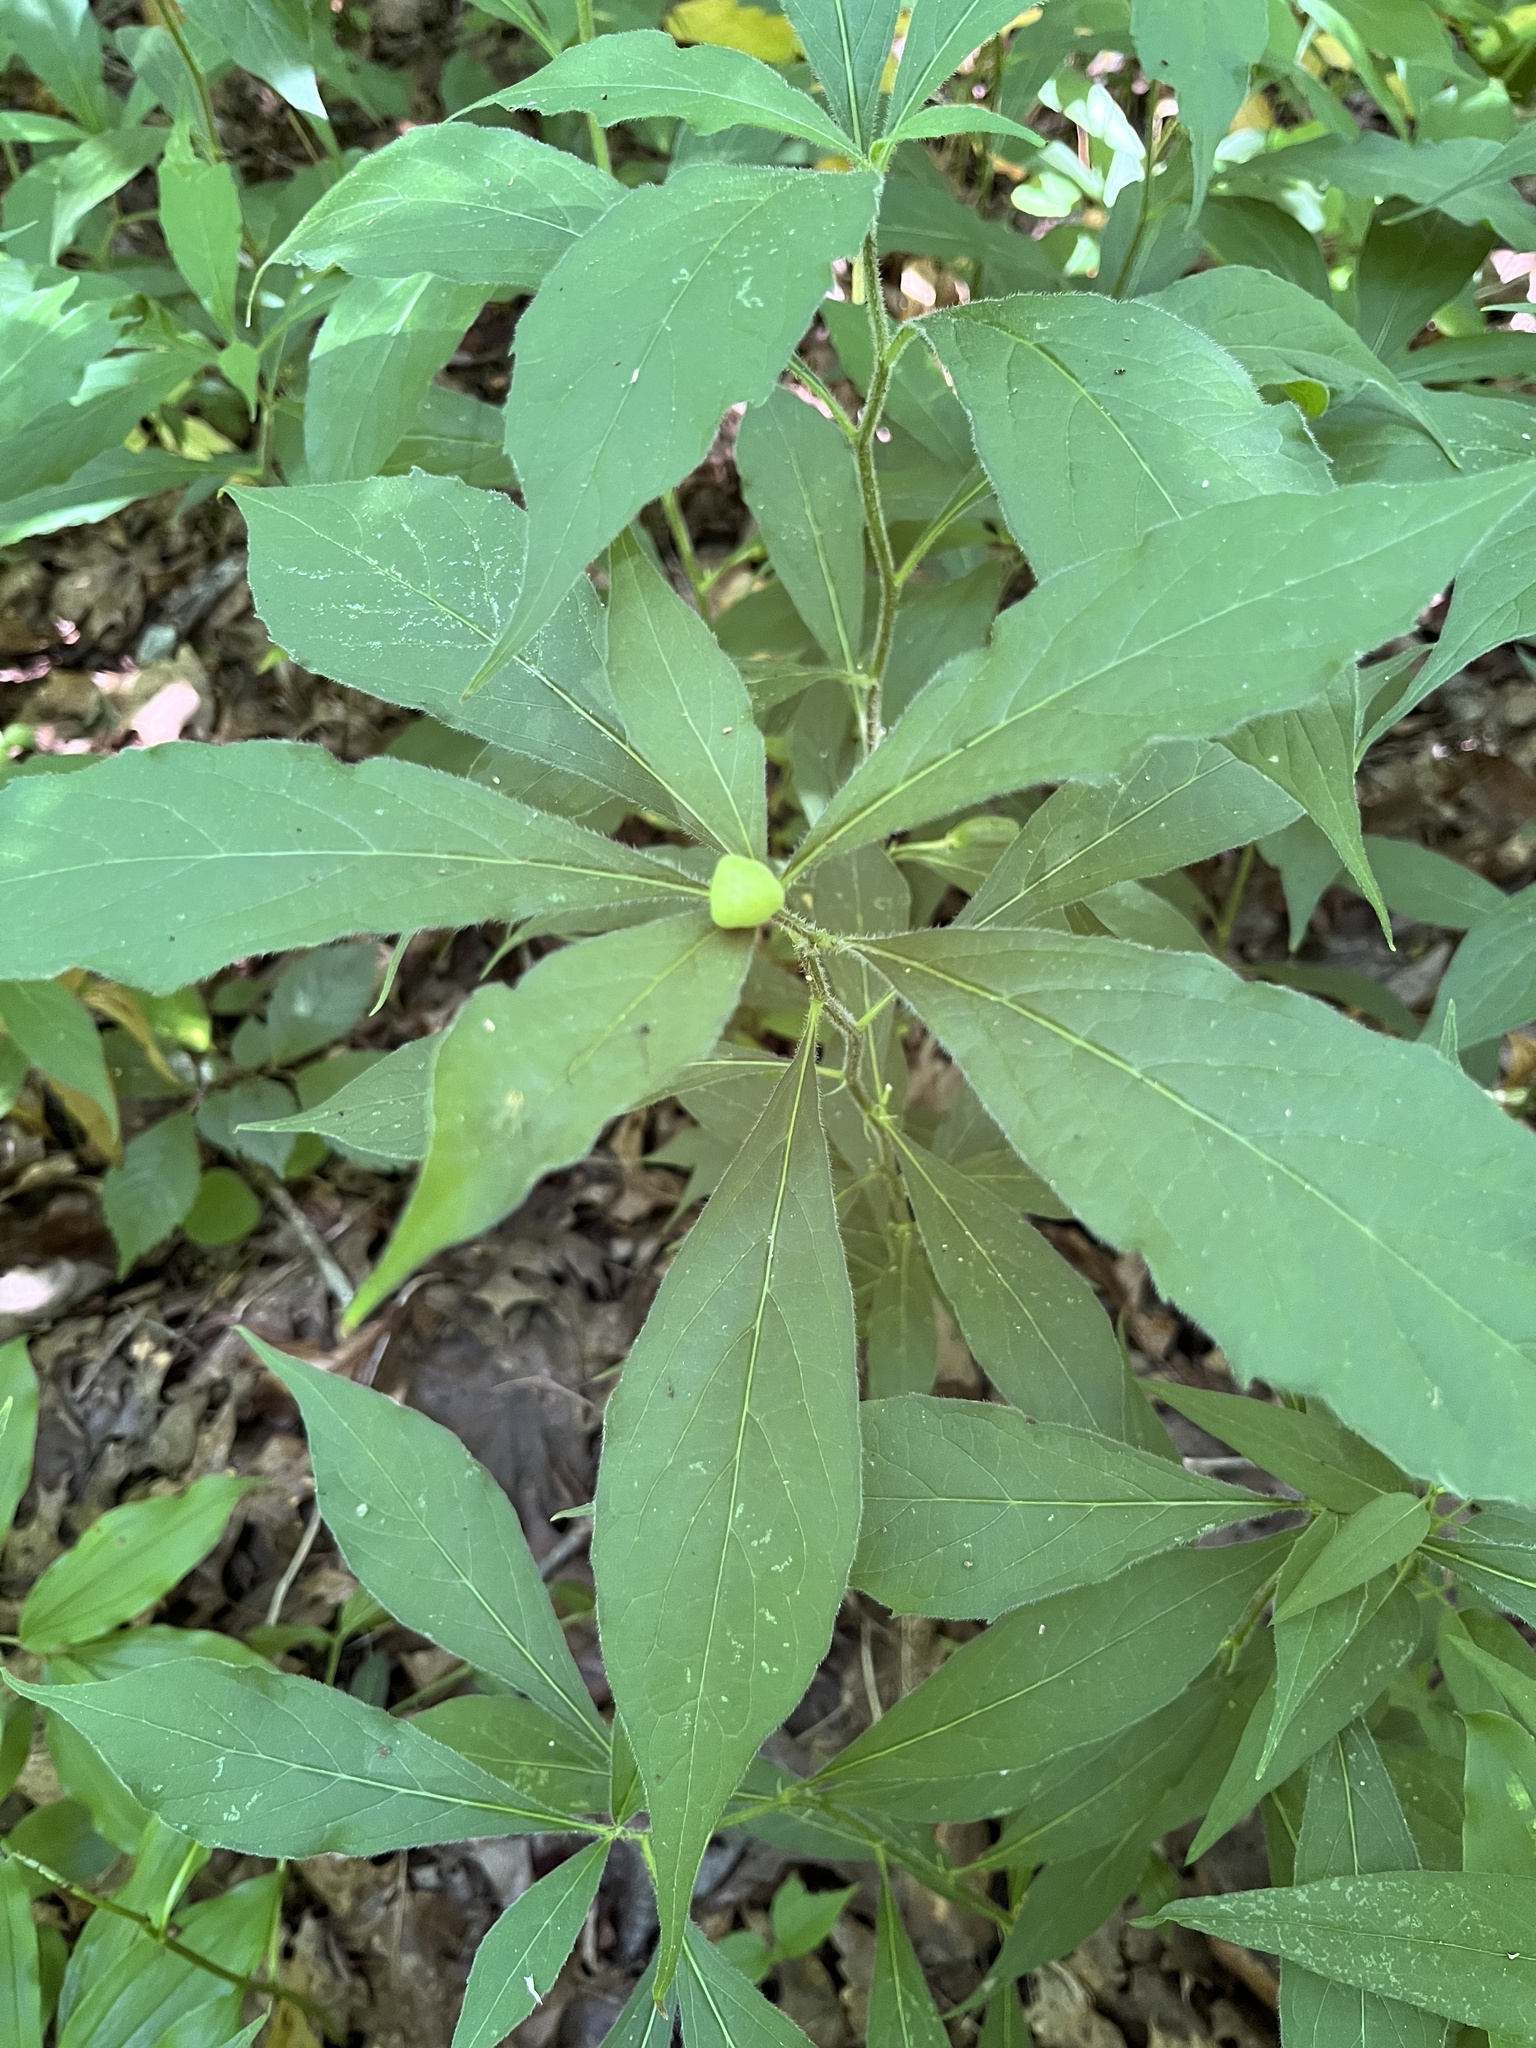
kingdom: Plantae
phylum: Tracheophyta
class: Magnoliopsida
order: Malpighiales
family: Violaceae
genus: Cubelium
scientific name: Cubelium concolor
